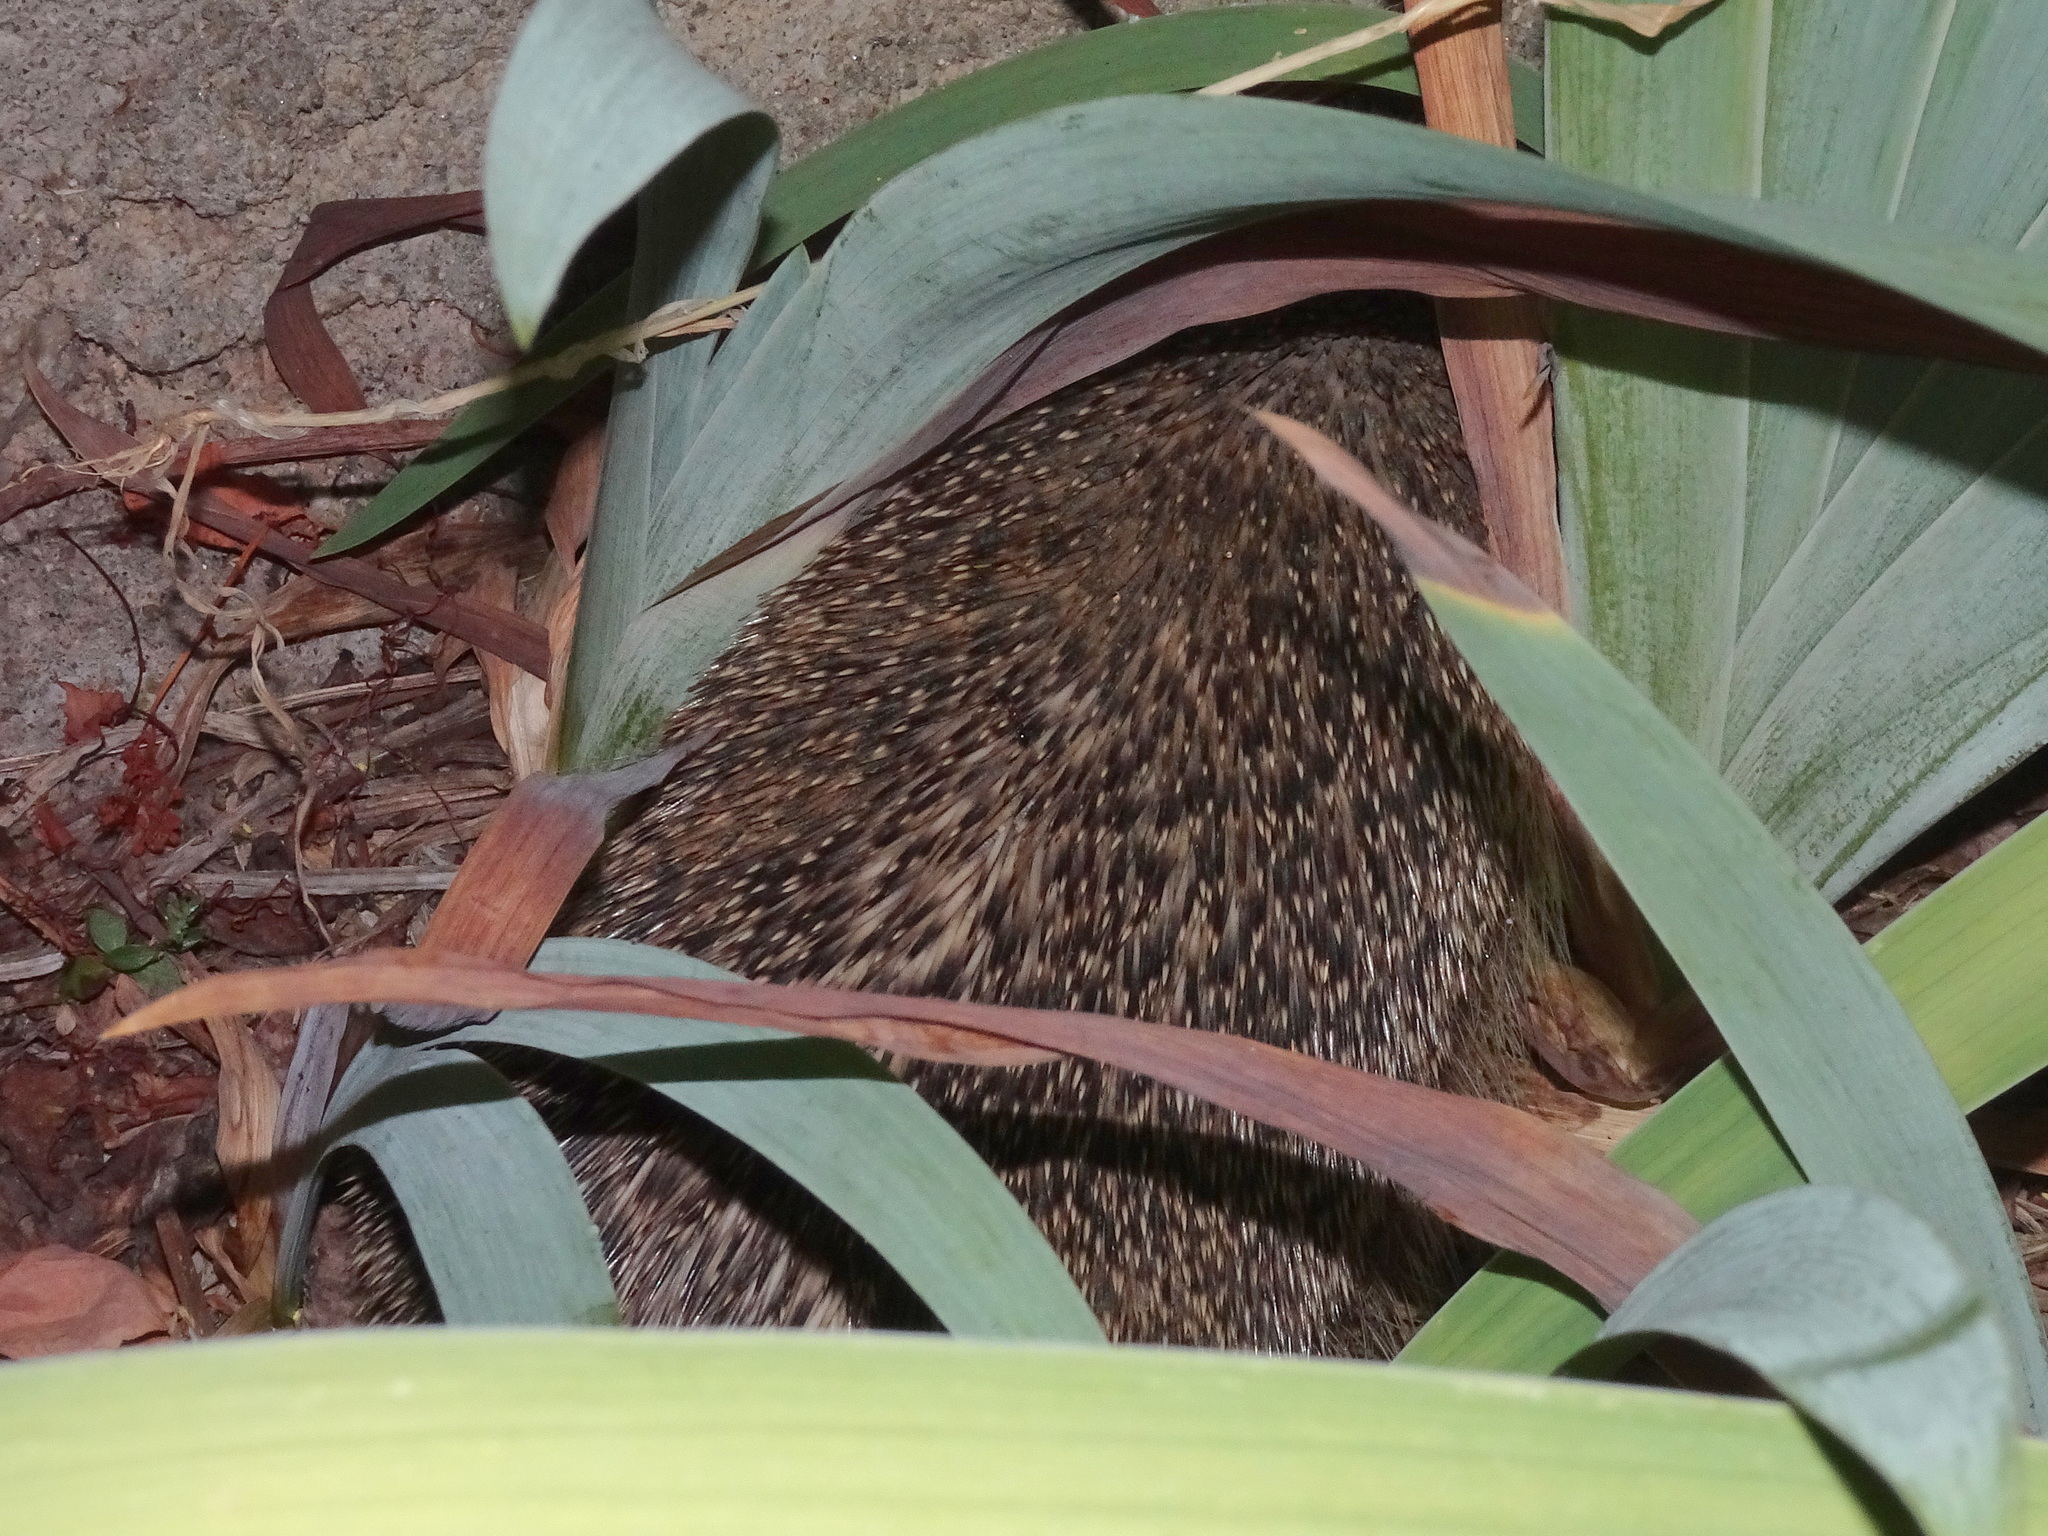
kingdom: Animalia
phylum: Chordata
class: Mammalia
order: Erinaceomorpha
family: Erinaceidae
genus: Erinaceus
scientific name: Erinaceus europaeus
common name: West european hedgehog
